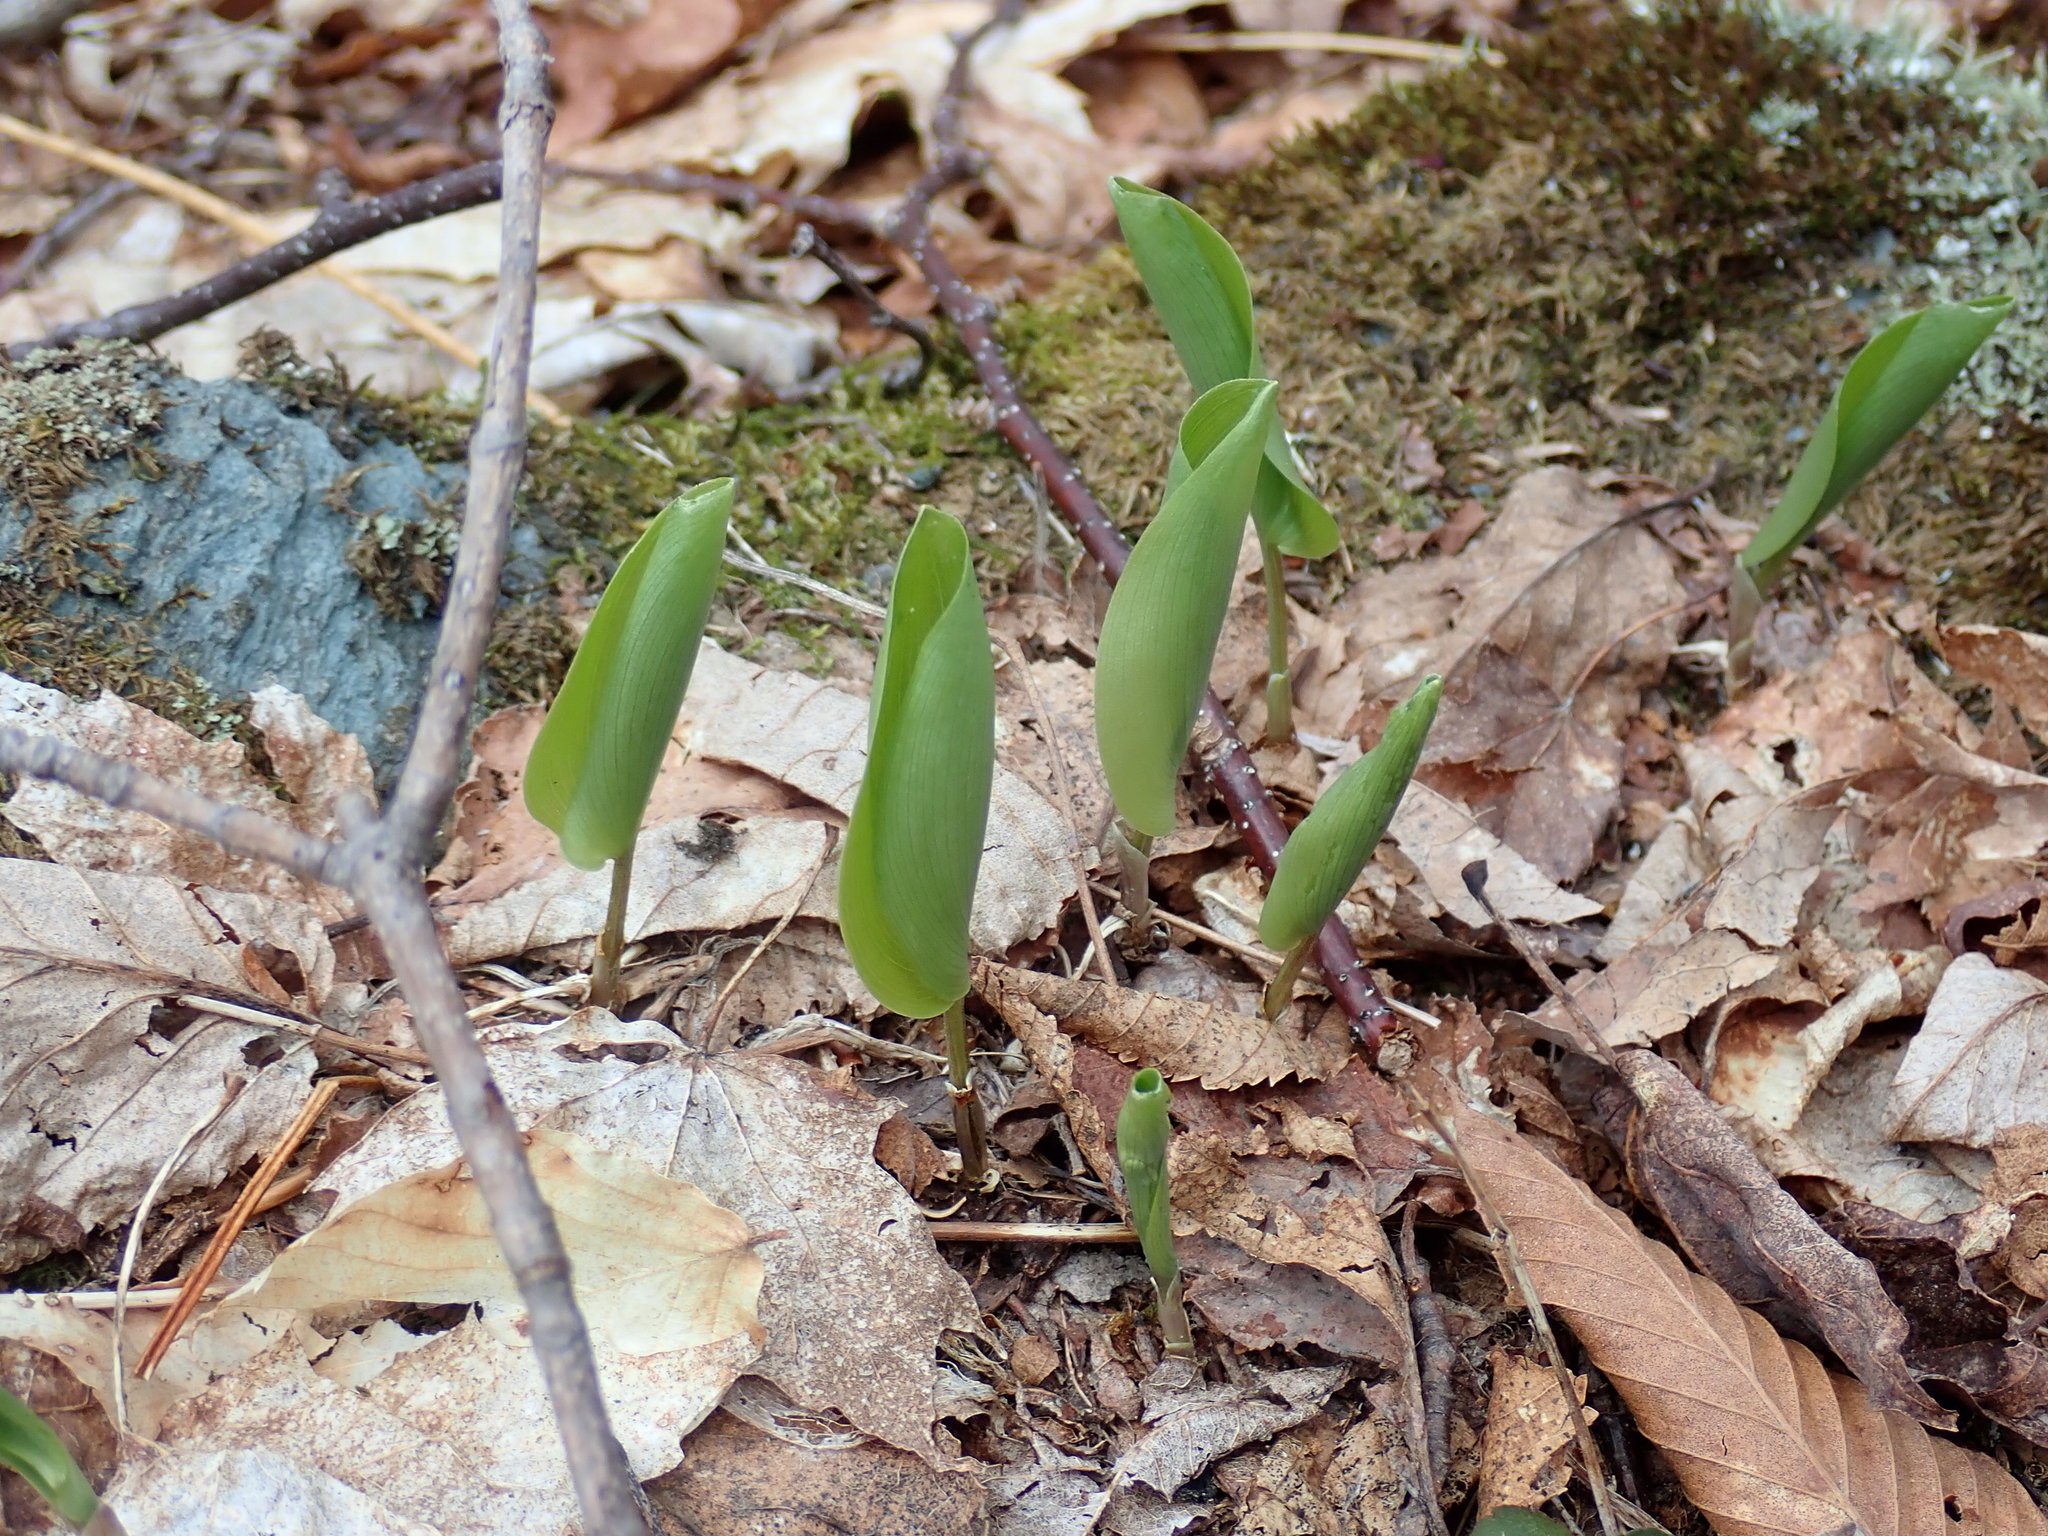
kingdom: Plantae
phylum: Tracheophyta
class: Liliopsida
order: Asparagales
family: Asparagaceae
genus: Maianthemum
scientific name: Maianthemum canadense
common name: False lily-of-the-valley
